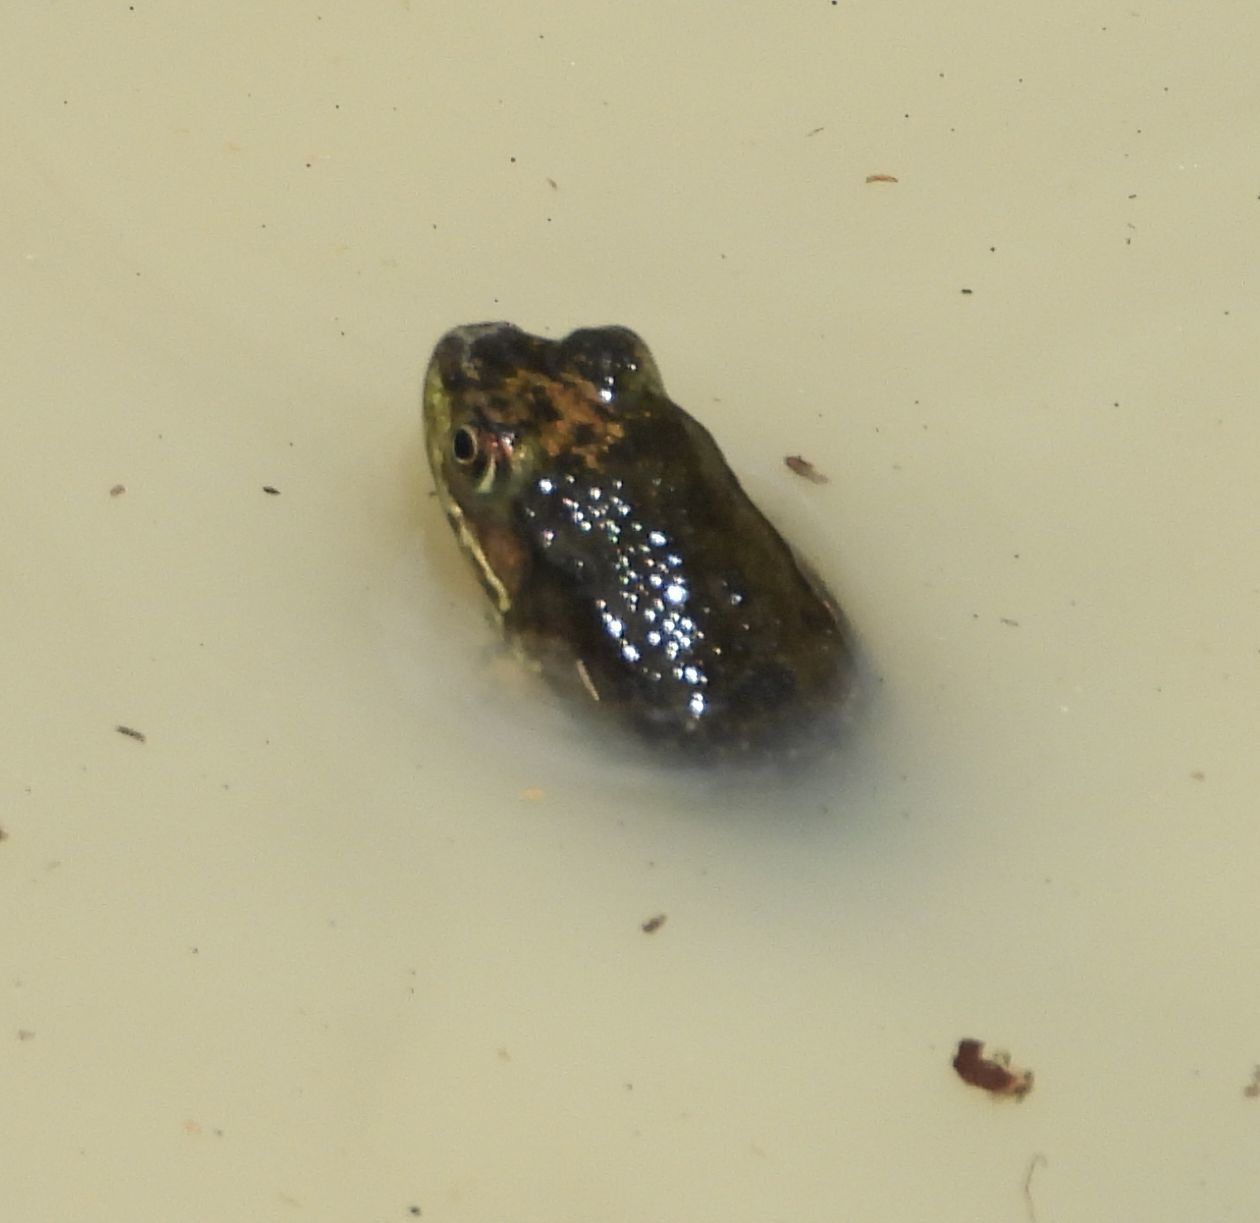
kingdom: Animalia
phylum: Chordata
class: Amphibia
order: Anura
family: Ranidae
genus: Lithobates
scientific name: Lithobates clamitans
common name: Green frog
